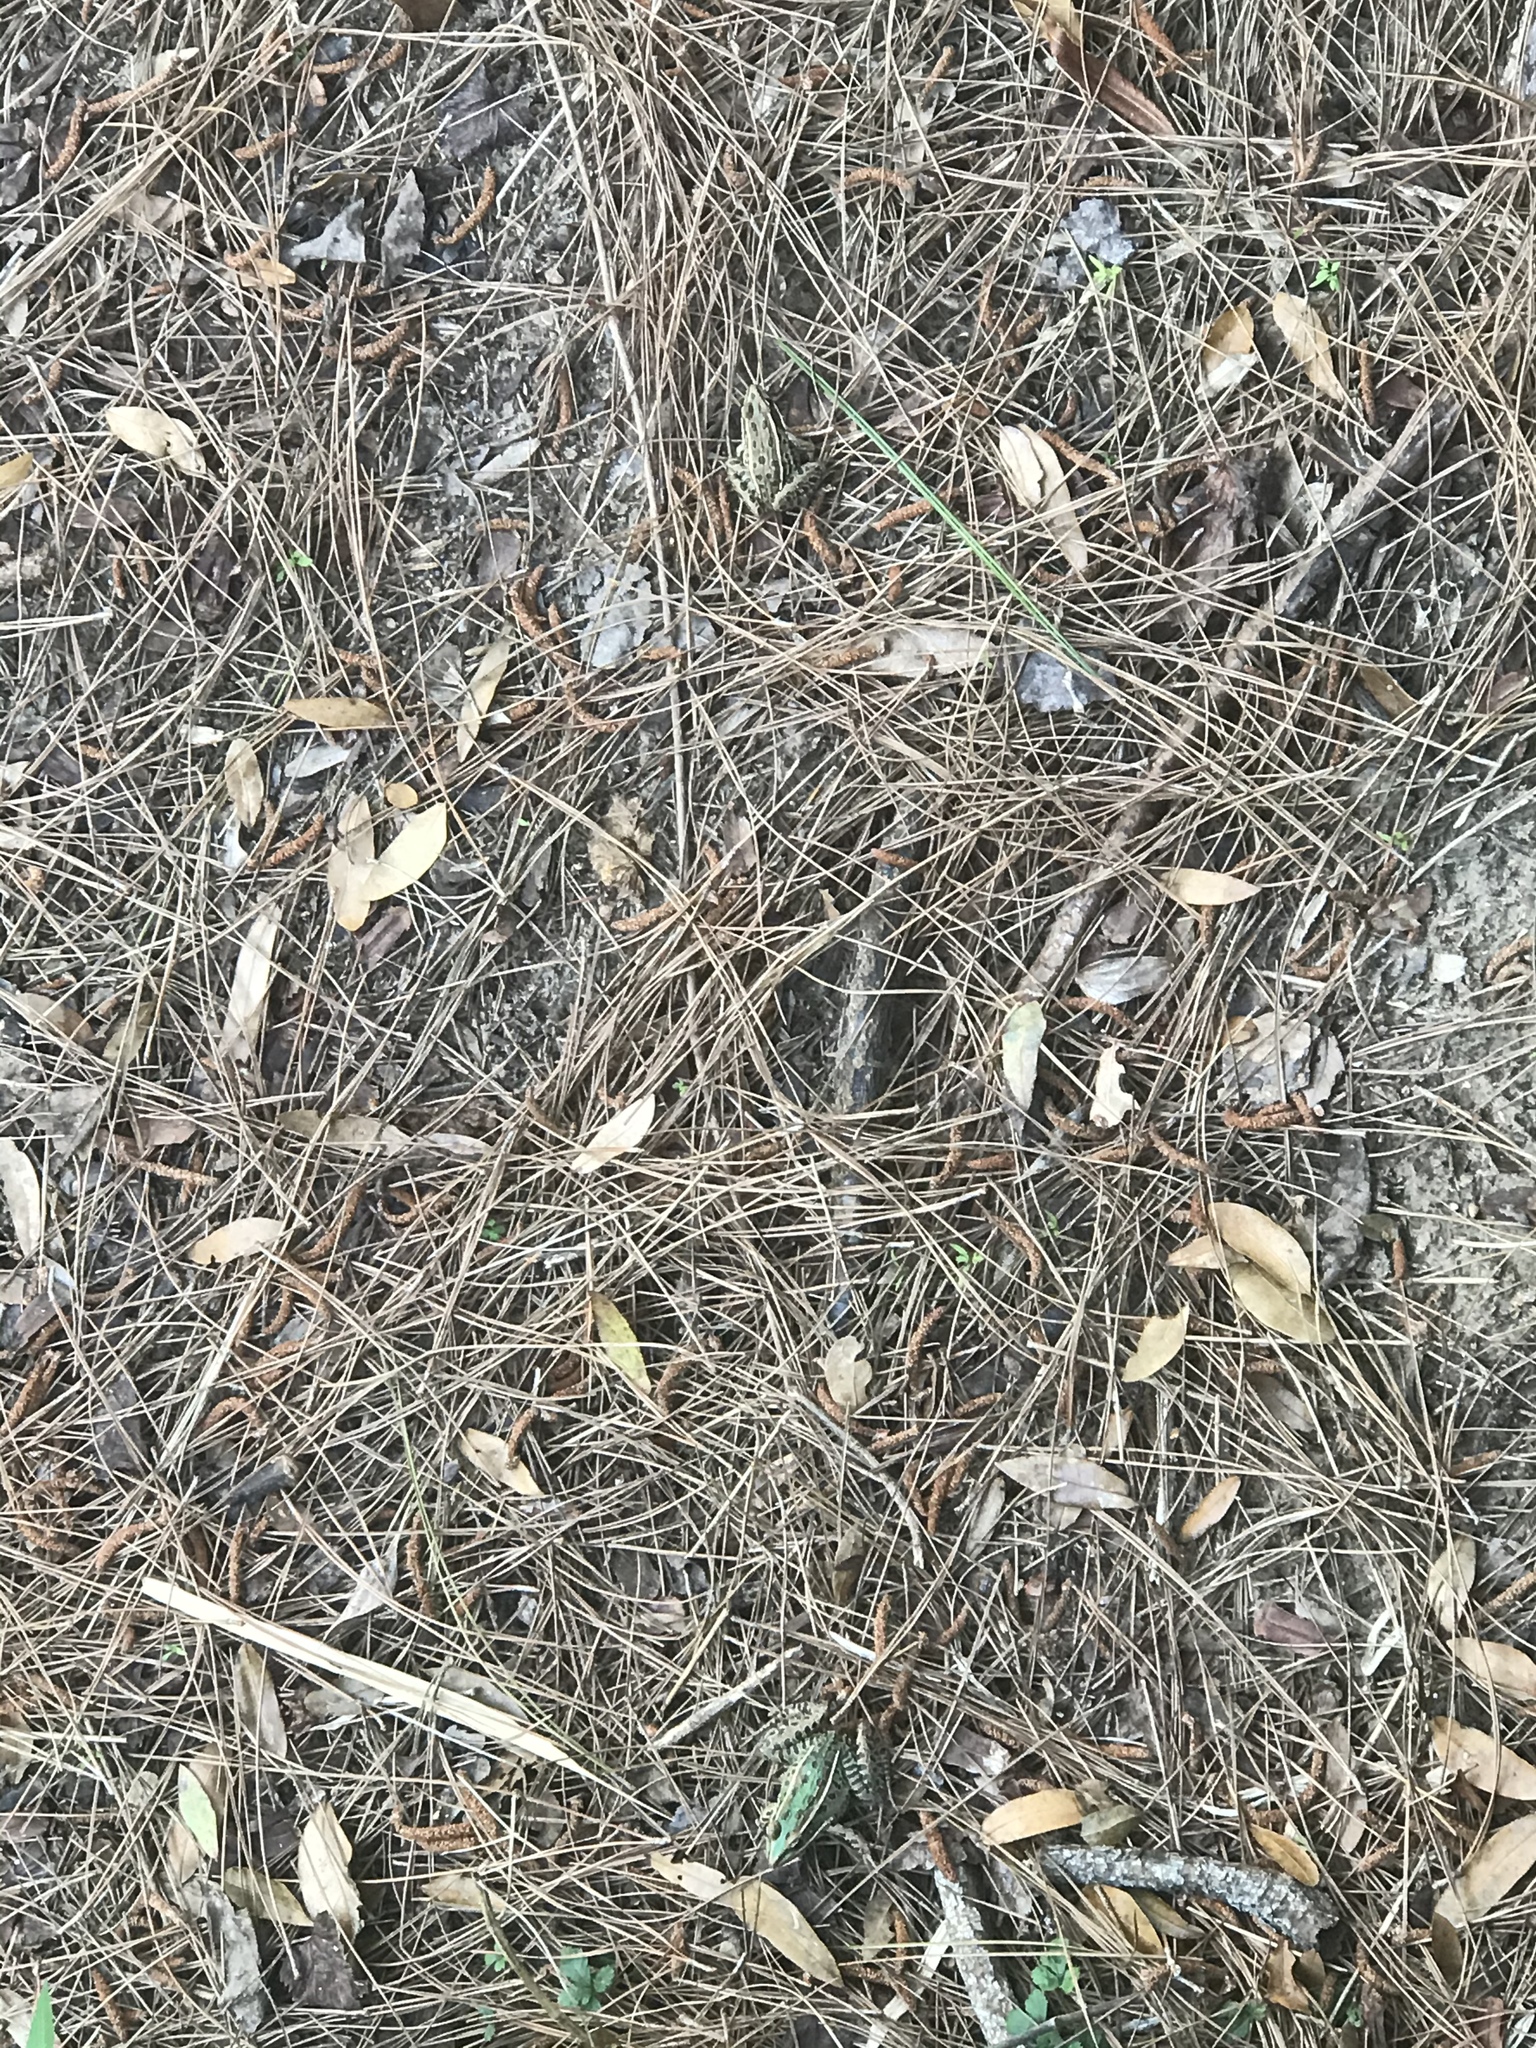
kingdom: Animalia
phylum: Chordata
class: Amphibia
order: Anura
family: Ranidae
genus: Lithobates
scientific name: Lithobates sphenocephalus
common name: Southern leopard frog
